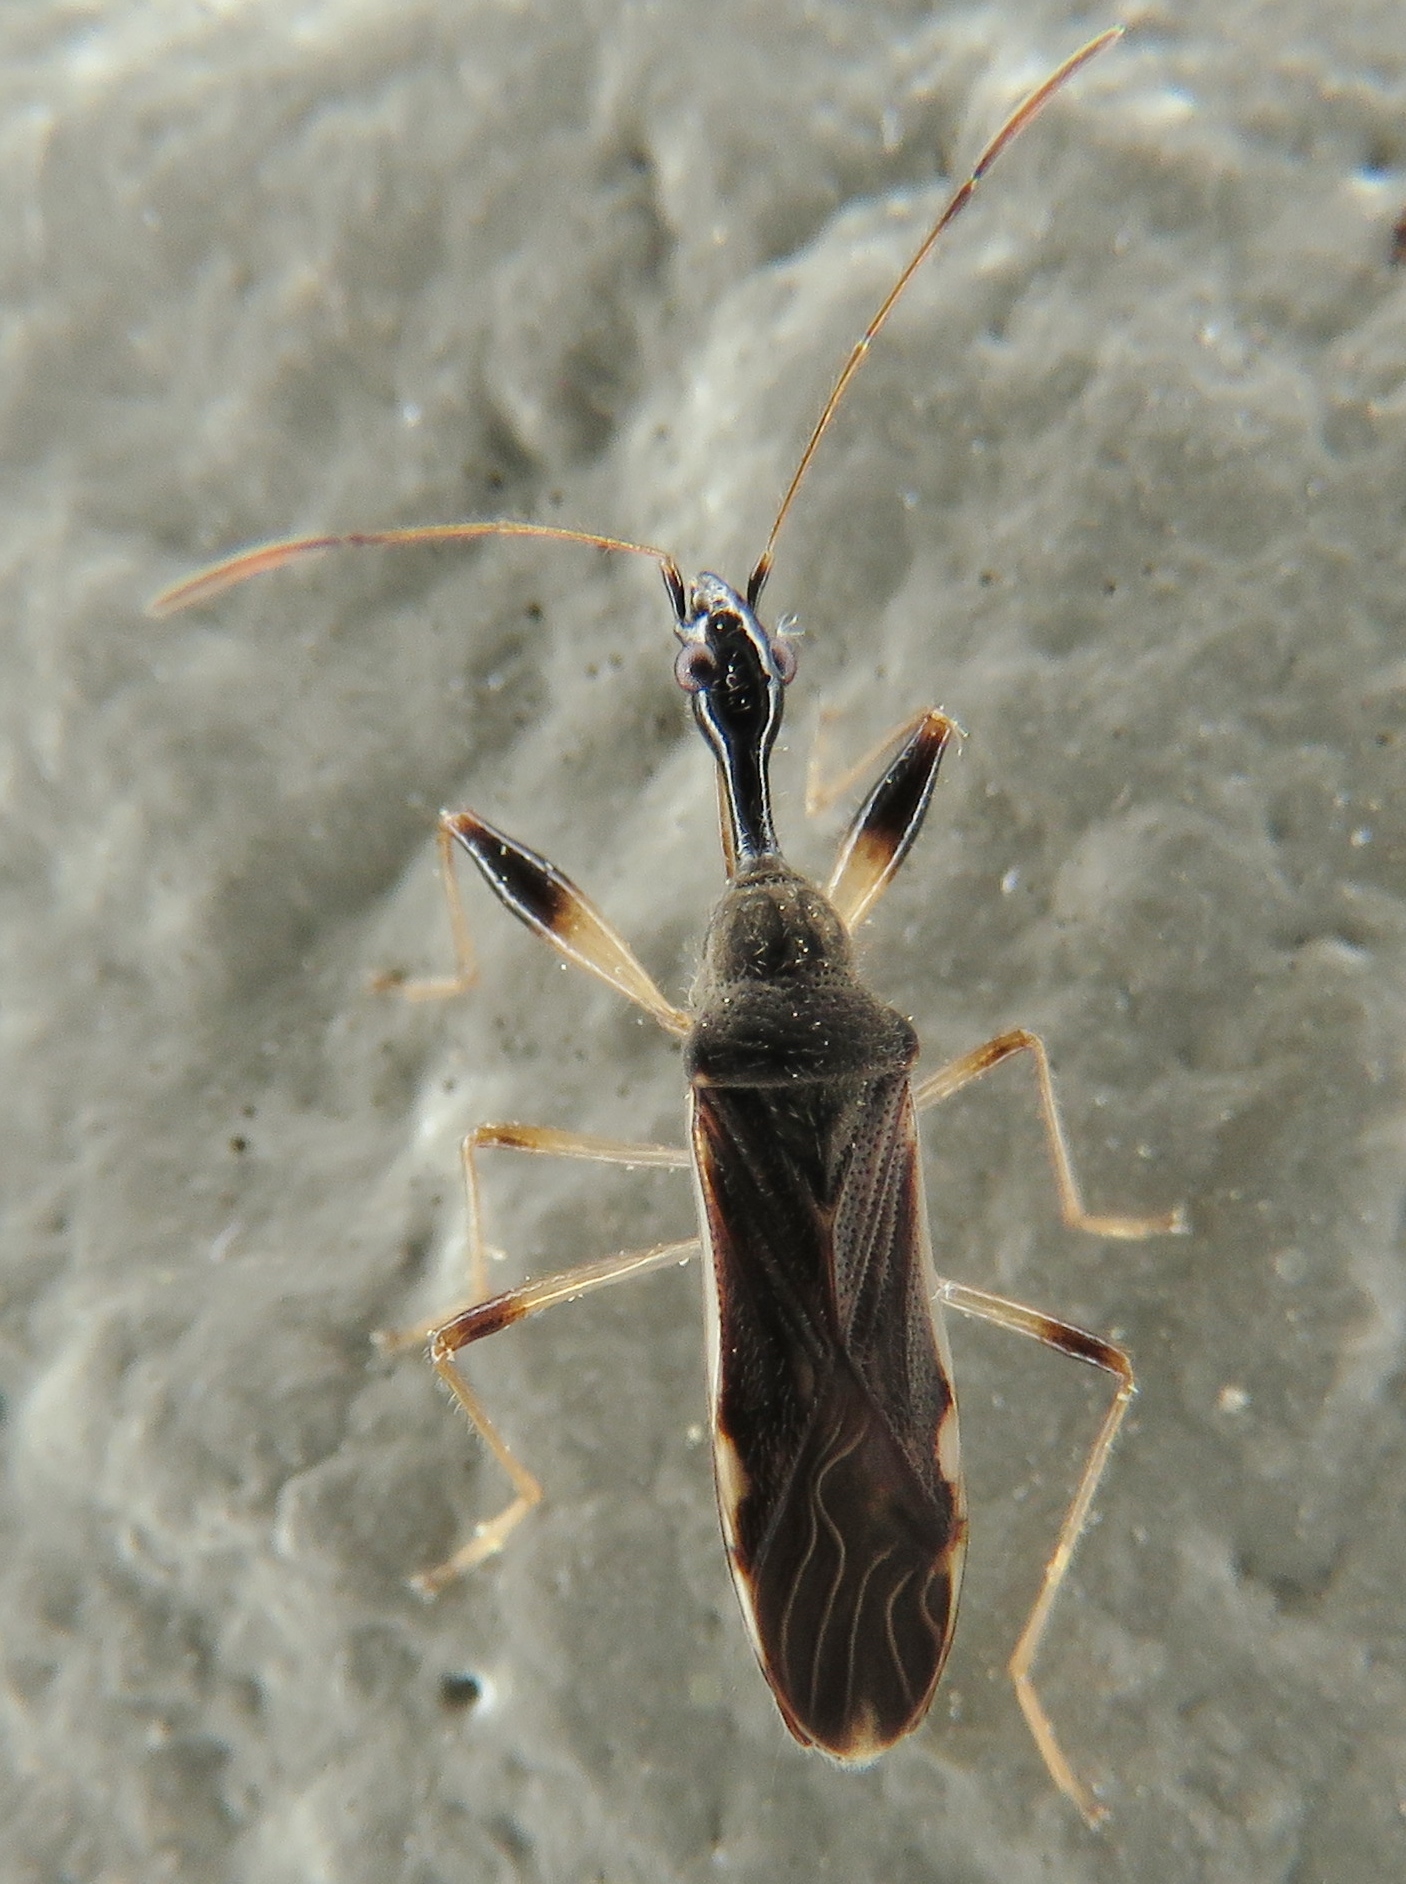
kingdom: Animalia
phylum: Arthropoda
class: Insecta
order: Hemiptera
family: Rhyparochromidae
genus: Myodocha
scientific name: Myodocha serripes
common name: Long-necked seed bug
